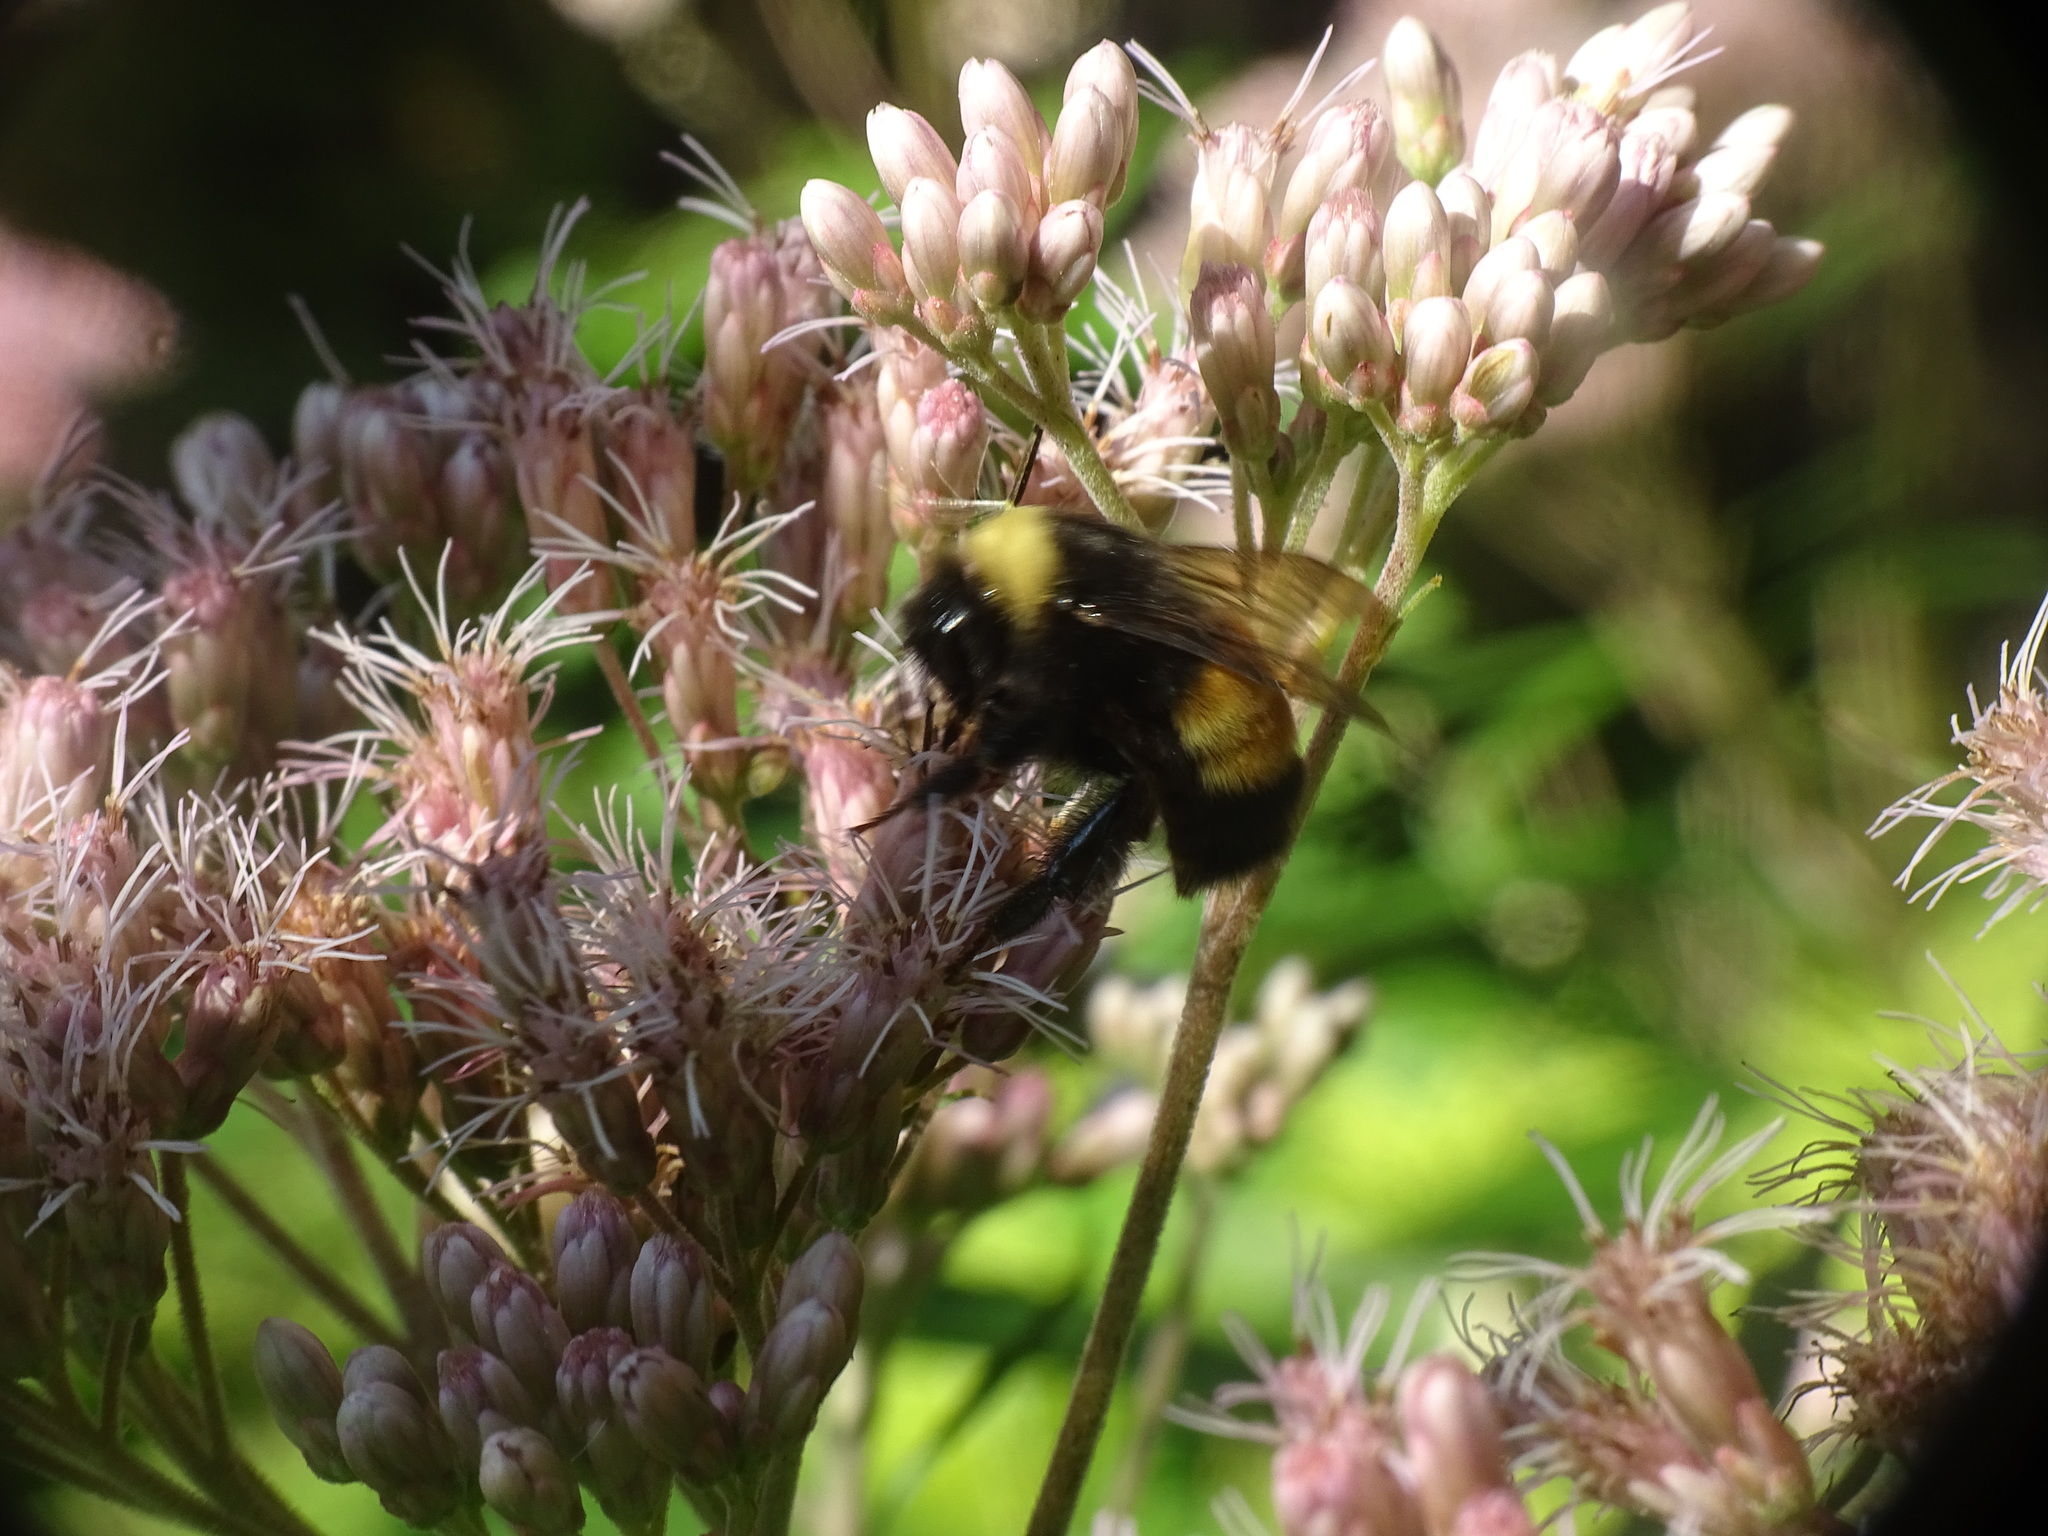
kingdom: Animalia
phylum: Arthropoda
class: Insecta
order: Hymenoptera
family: Apidae
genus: Bombus
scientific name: Bombus terricola
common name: Yellow-banded bumble bee
